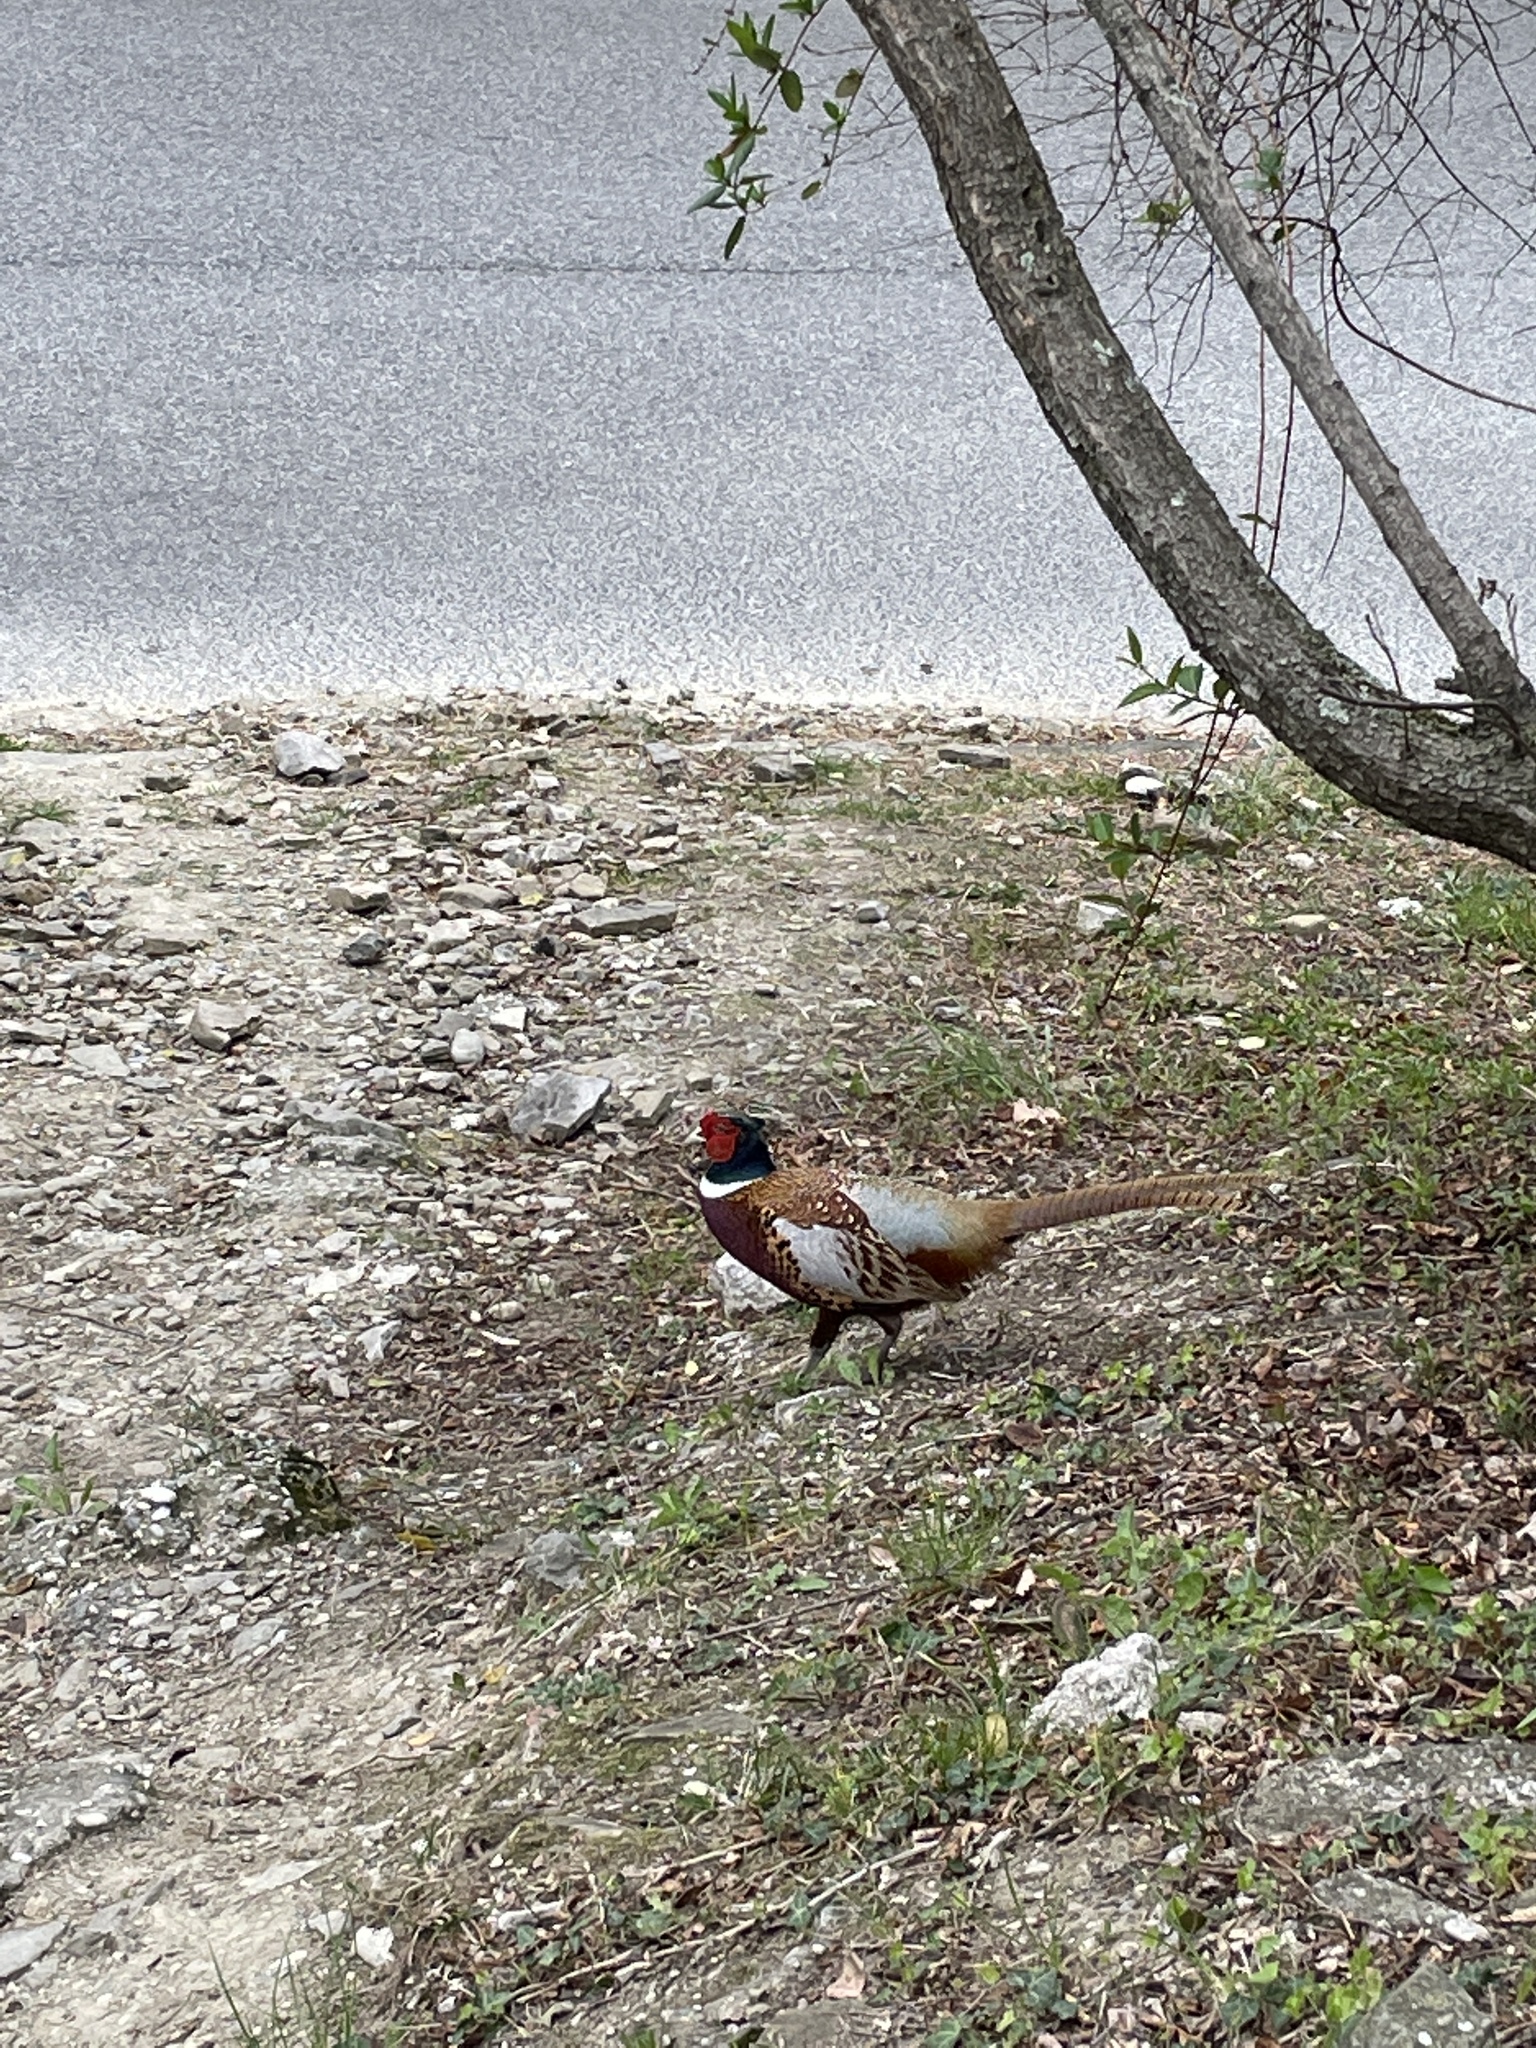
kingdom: Animalia
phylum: Chordata
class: Aves
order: Galliformes
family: Phasianidae
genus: Phasianus
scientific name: Phasianus colchicus
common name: Common pheasant
